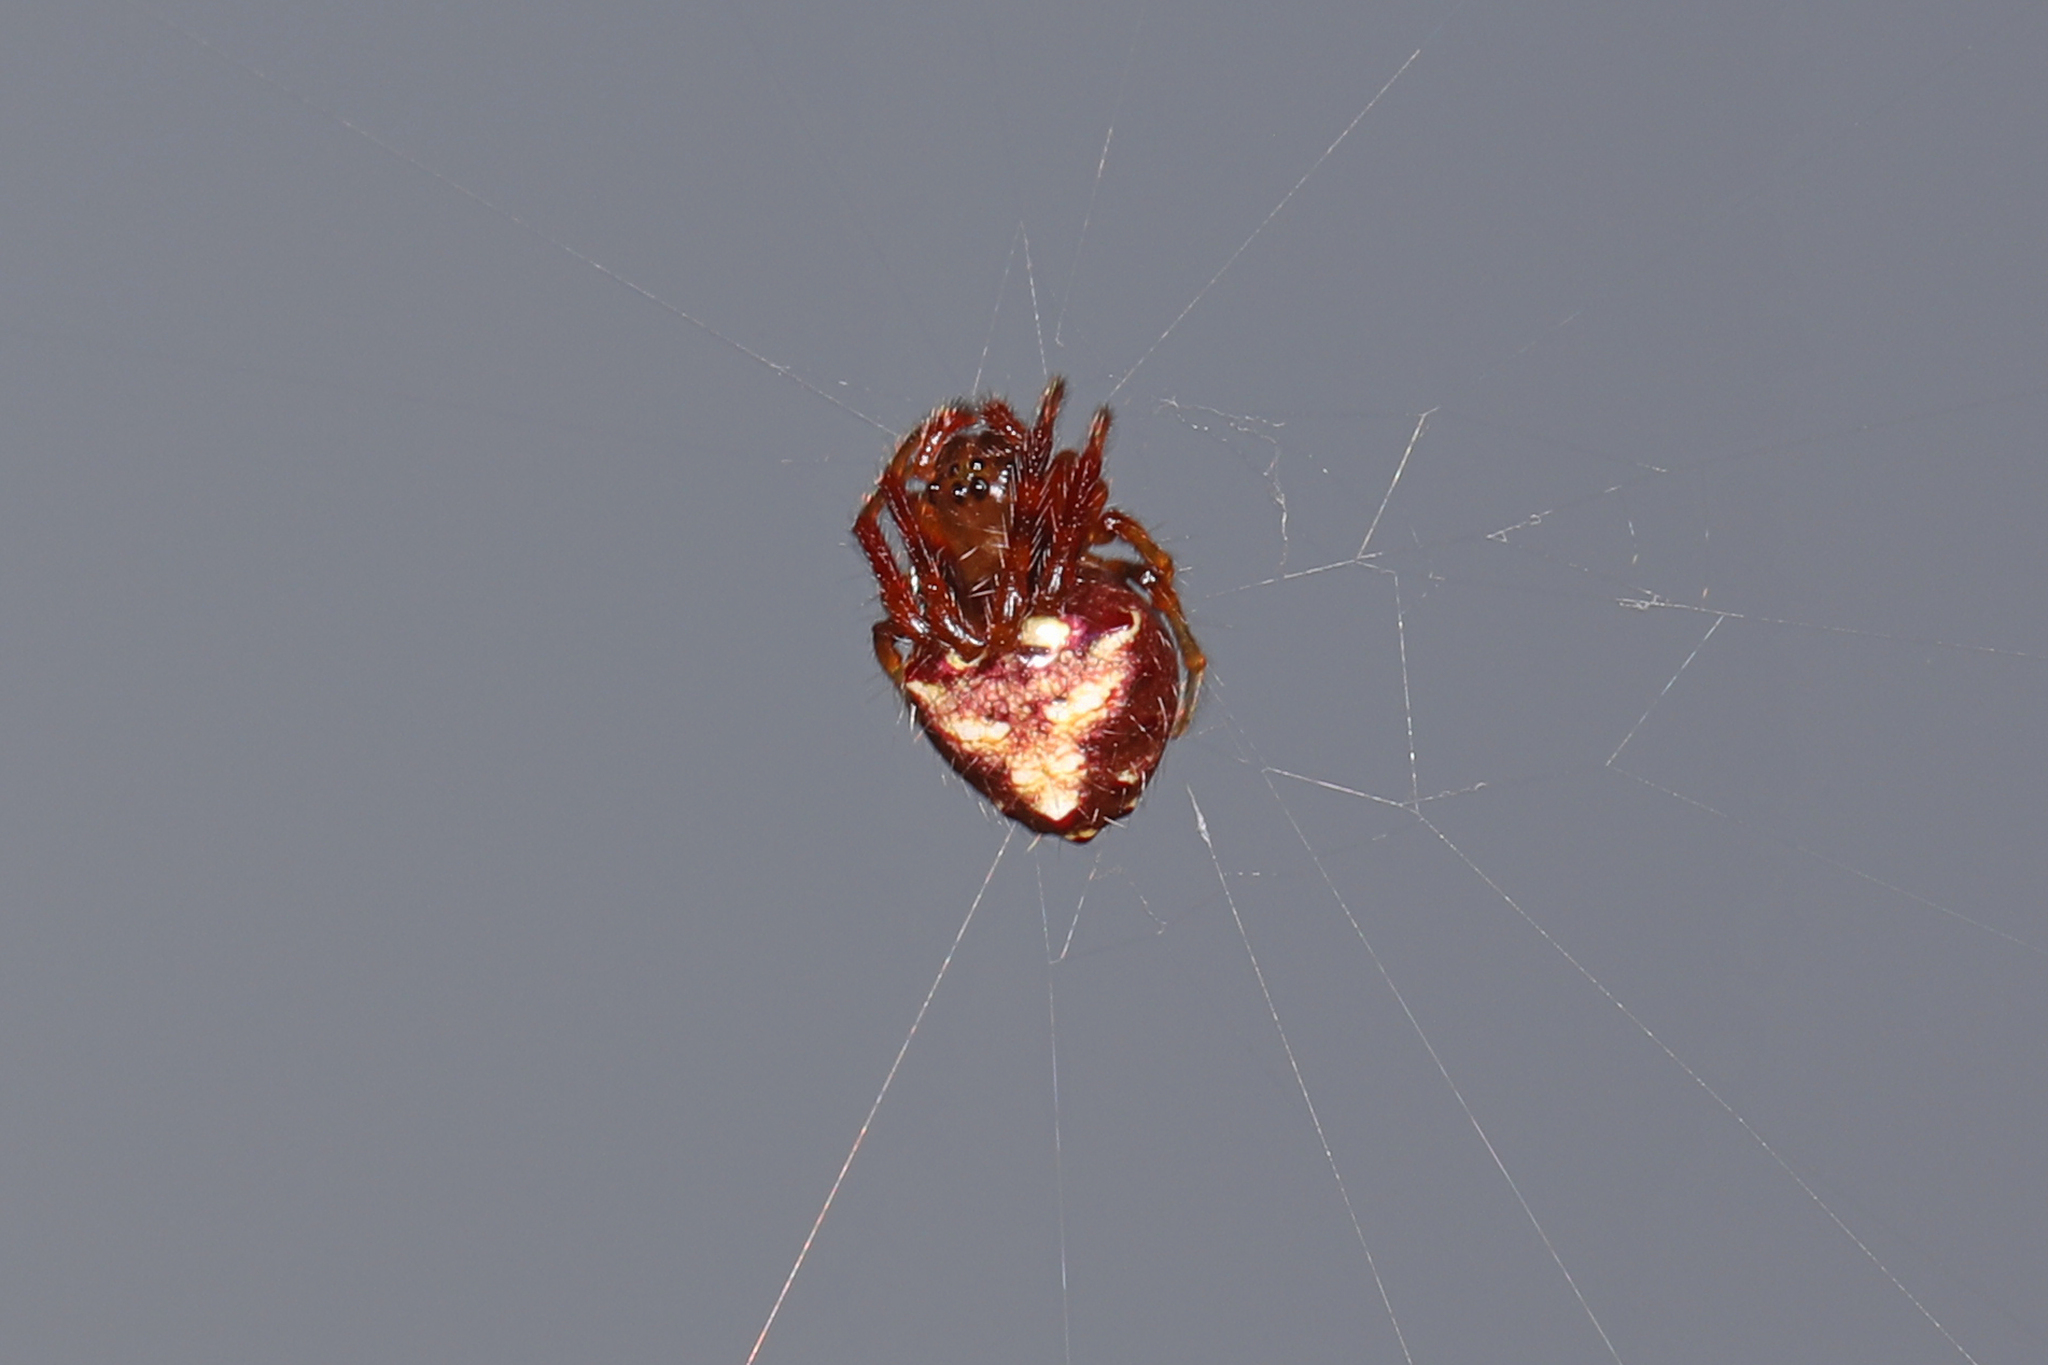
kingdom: Animalia
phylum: Arthropoda
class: Arachnida
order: Araneae
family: Araneidae
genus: Verrucosa
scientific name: Verrucosa arenata
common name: Orb weavers
